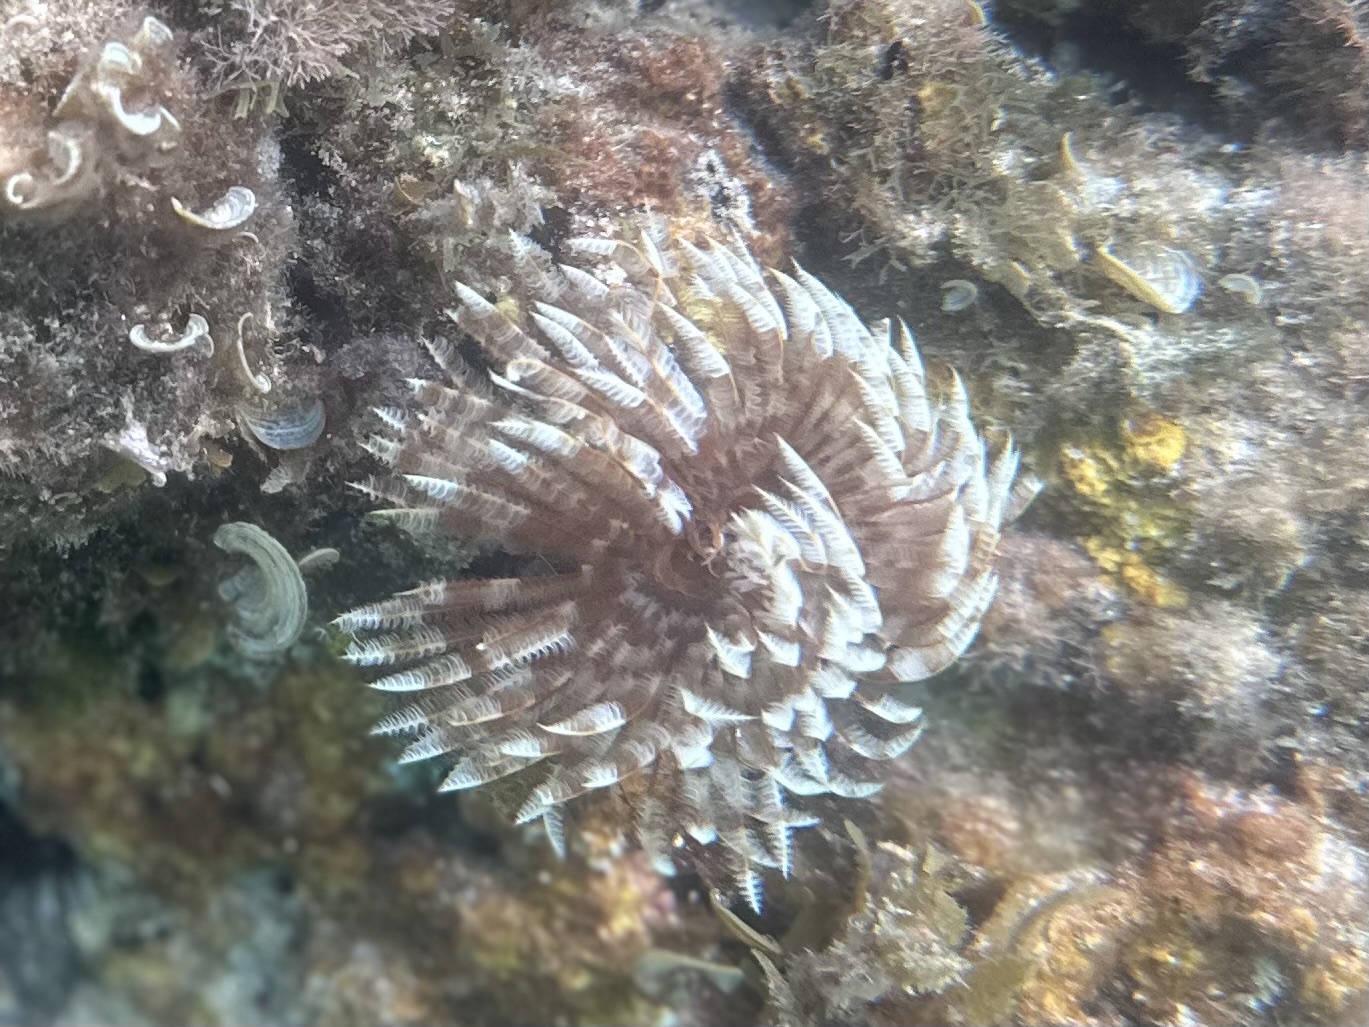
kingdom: Animalia
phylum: Annelida
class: Polychaeta
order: Sabellida
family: Sabellidae
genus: Sabellastarte
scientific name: Sabellastarte magnifica
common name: Giant feather-duster worm
